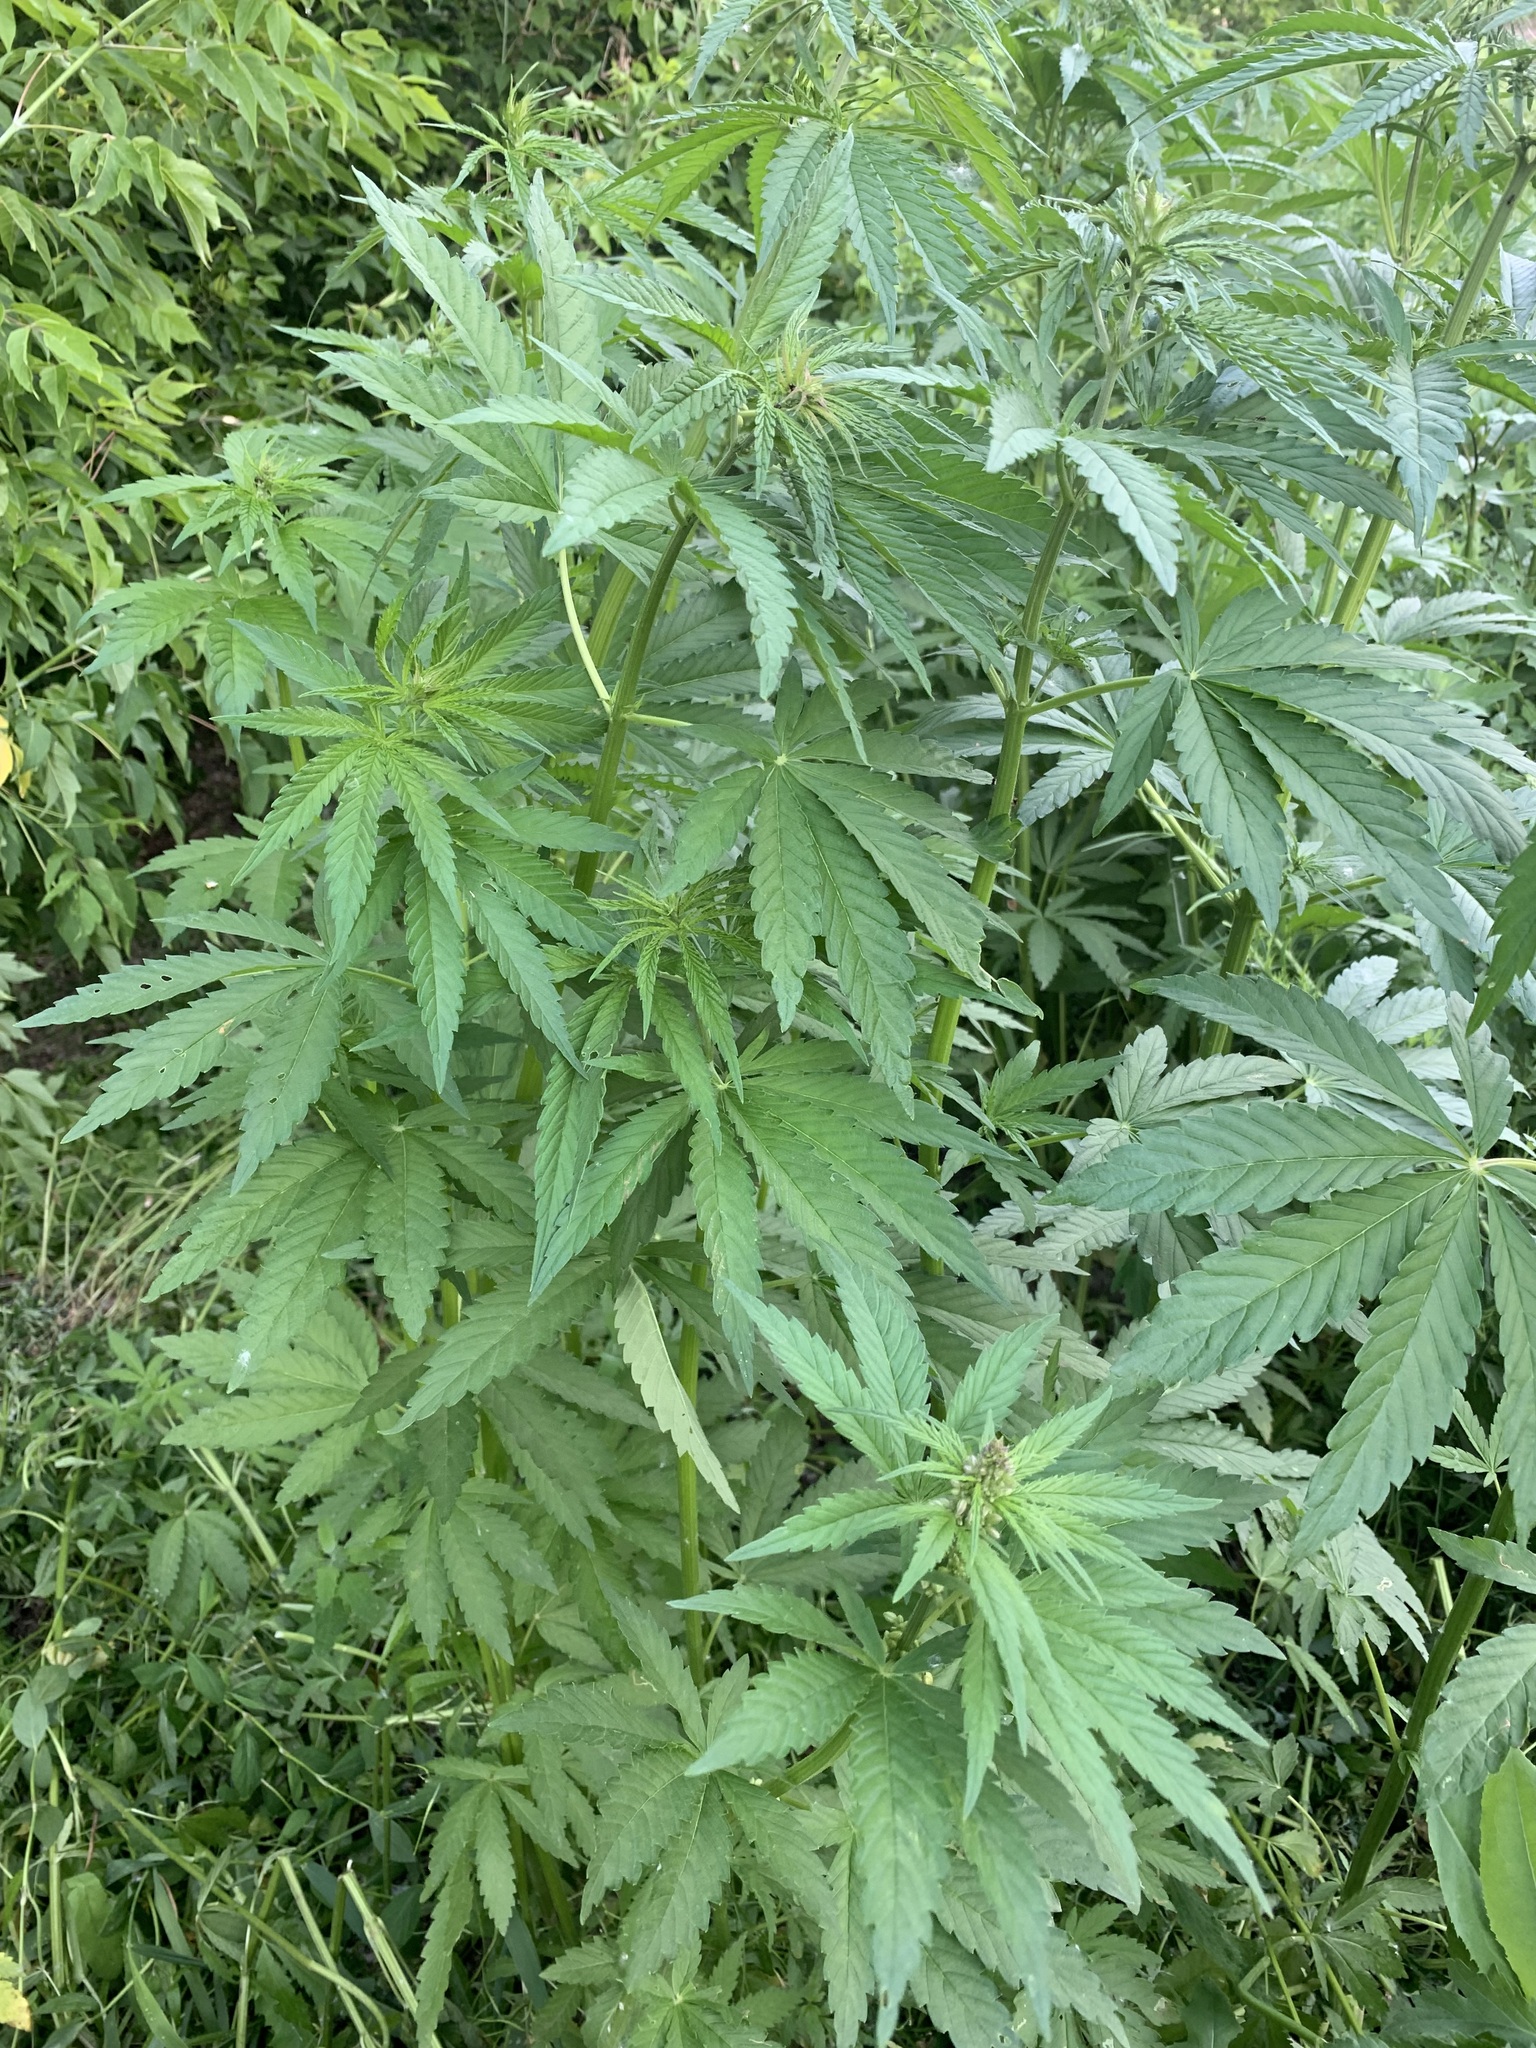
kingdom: Plantae
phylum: Tracheophyta
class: Magnoliopsida
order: Rosales
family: Cannabaceae
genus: Cannabis
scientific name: Cannabis sativa
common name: Hemp
